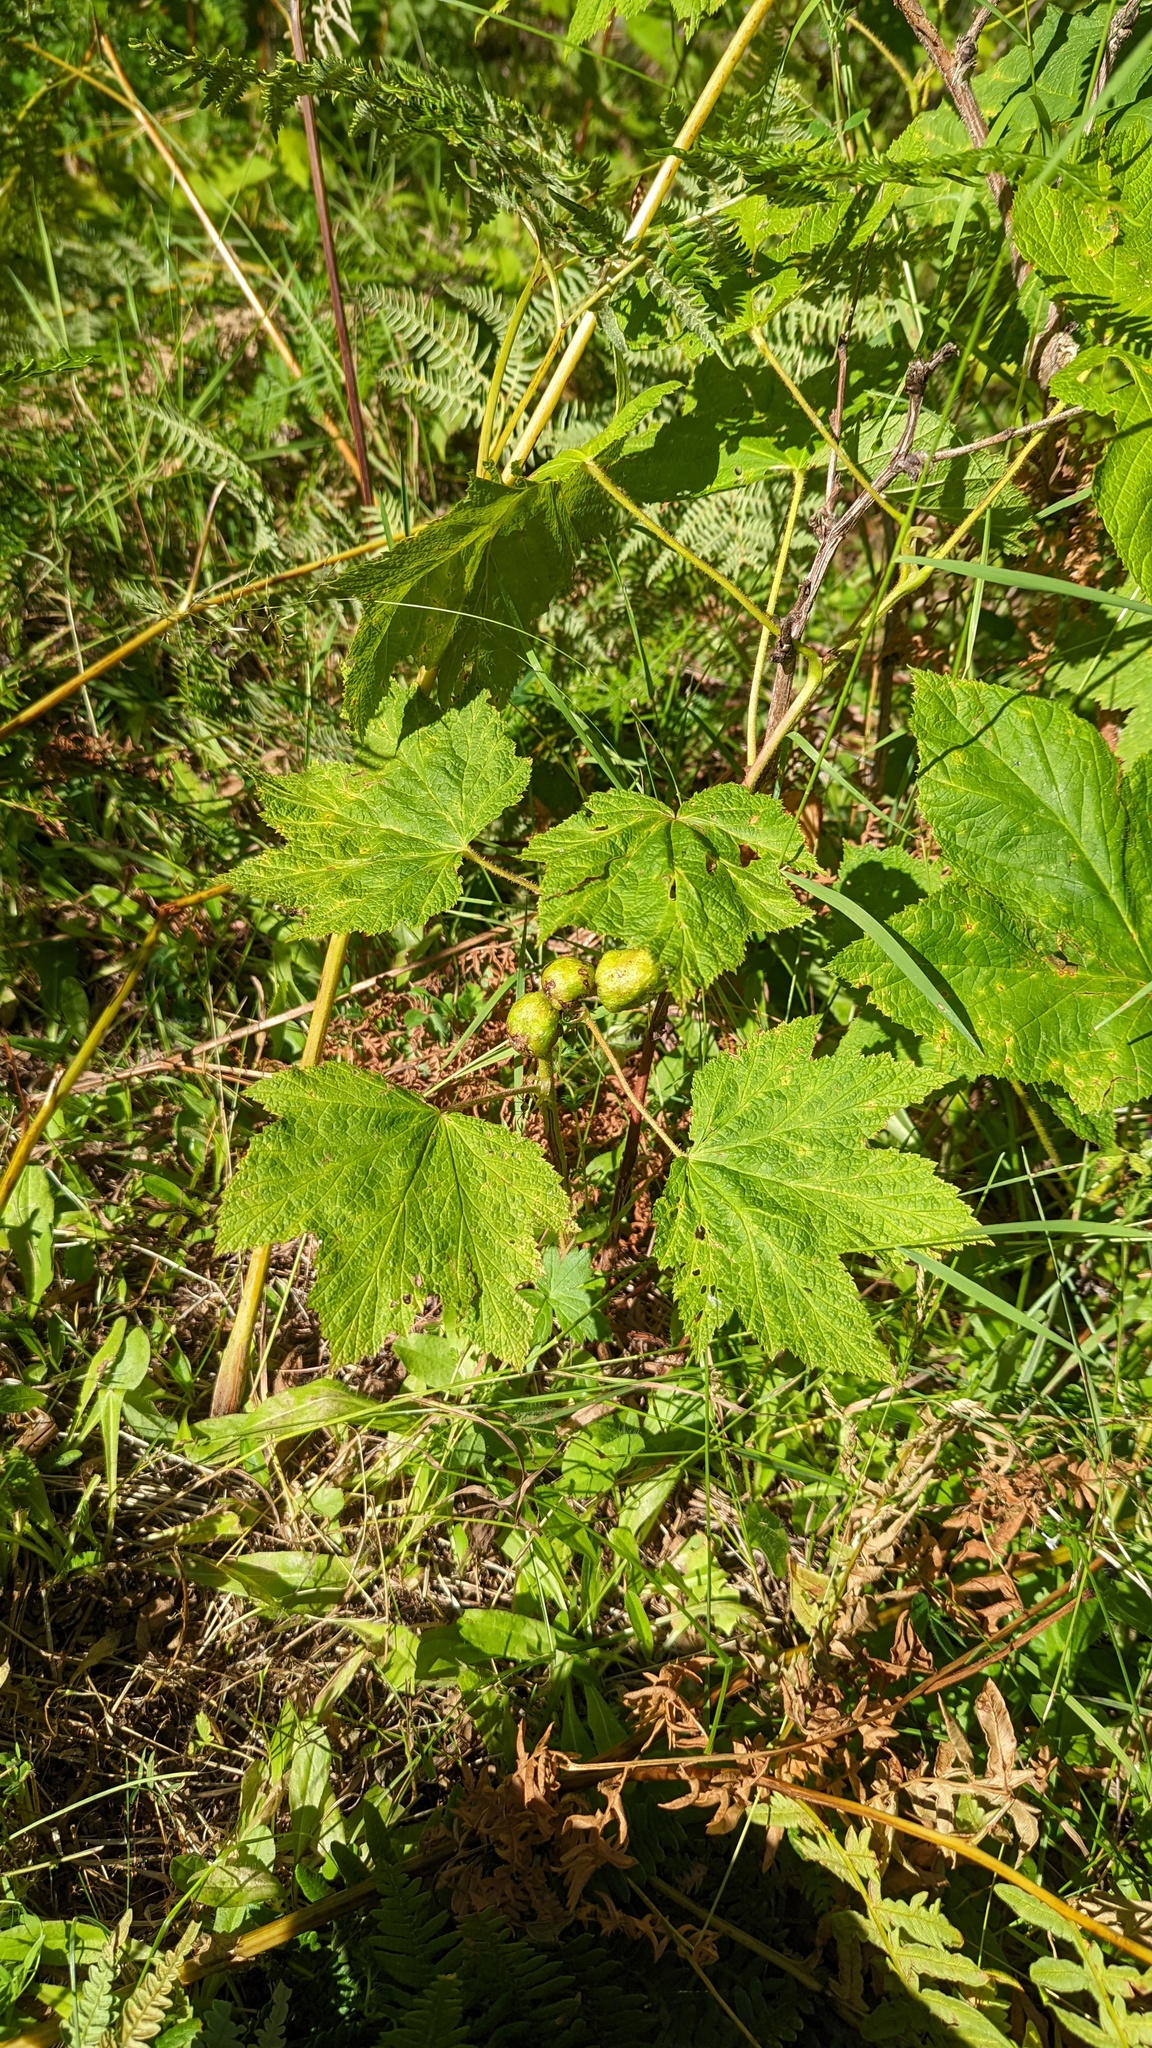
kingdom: Plantae
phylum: Tracheophyta
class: Magnoliopsida
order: Rosales
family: Rosaceae
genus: Rubus
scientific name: Rubus parviflorus
